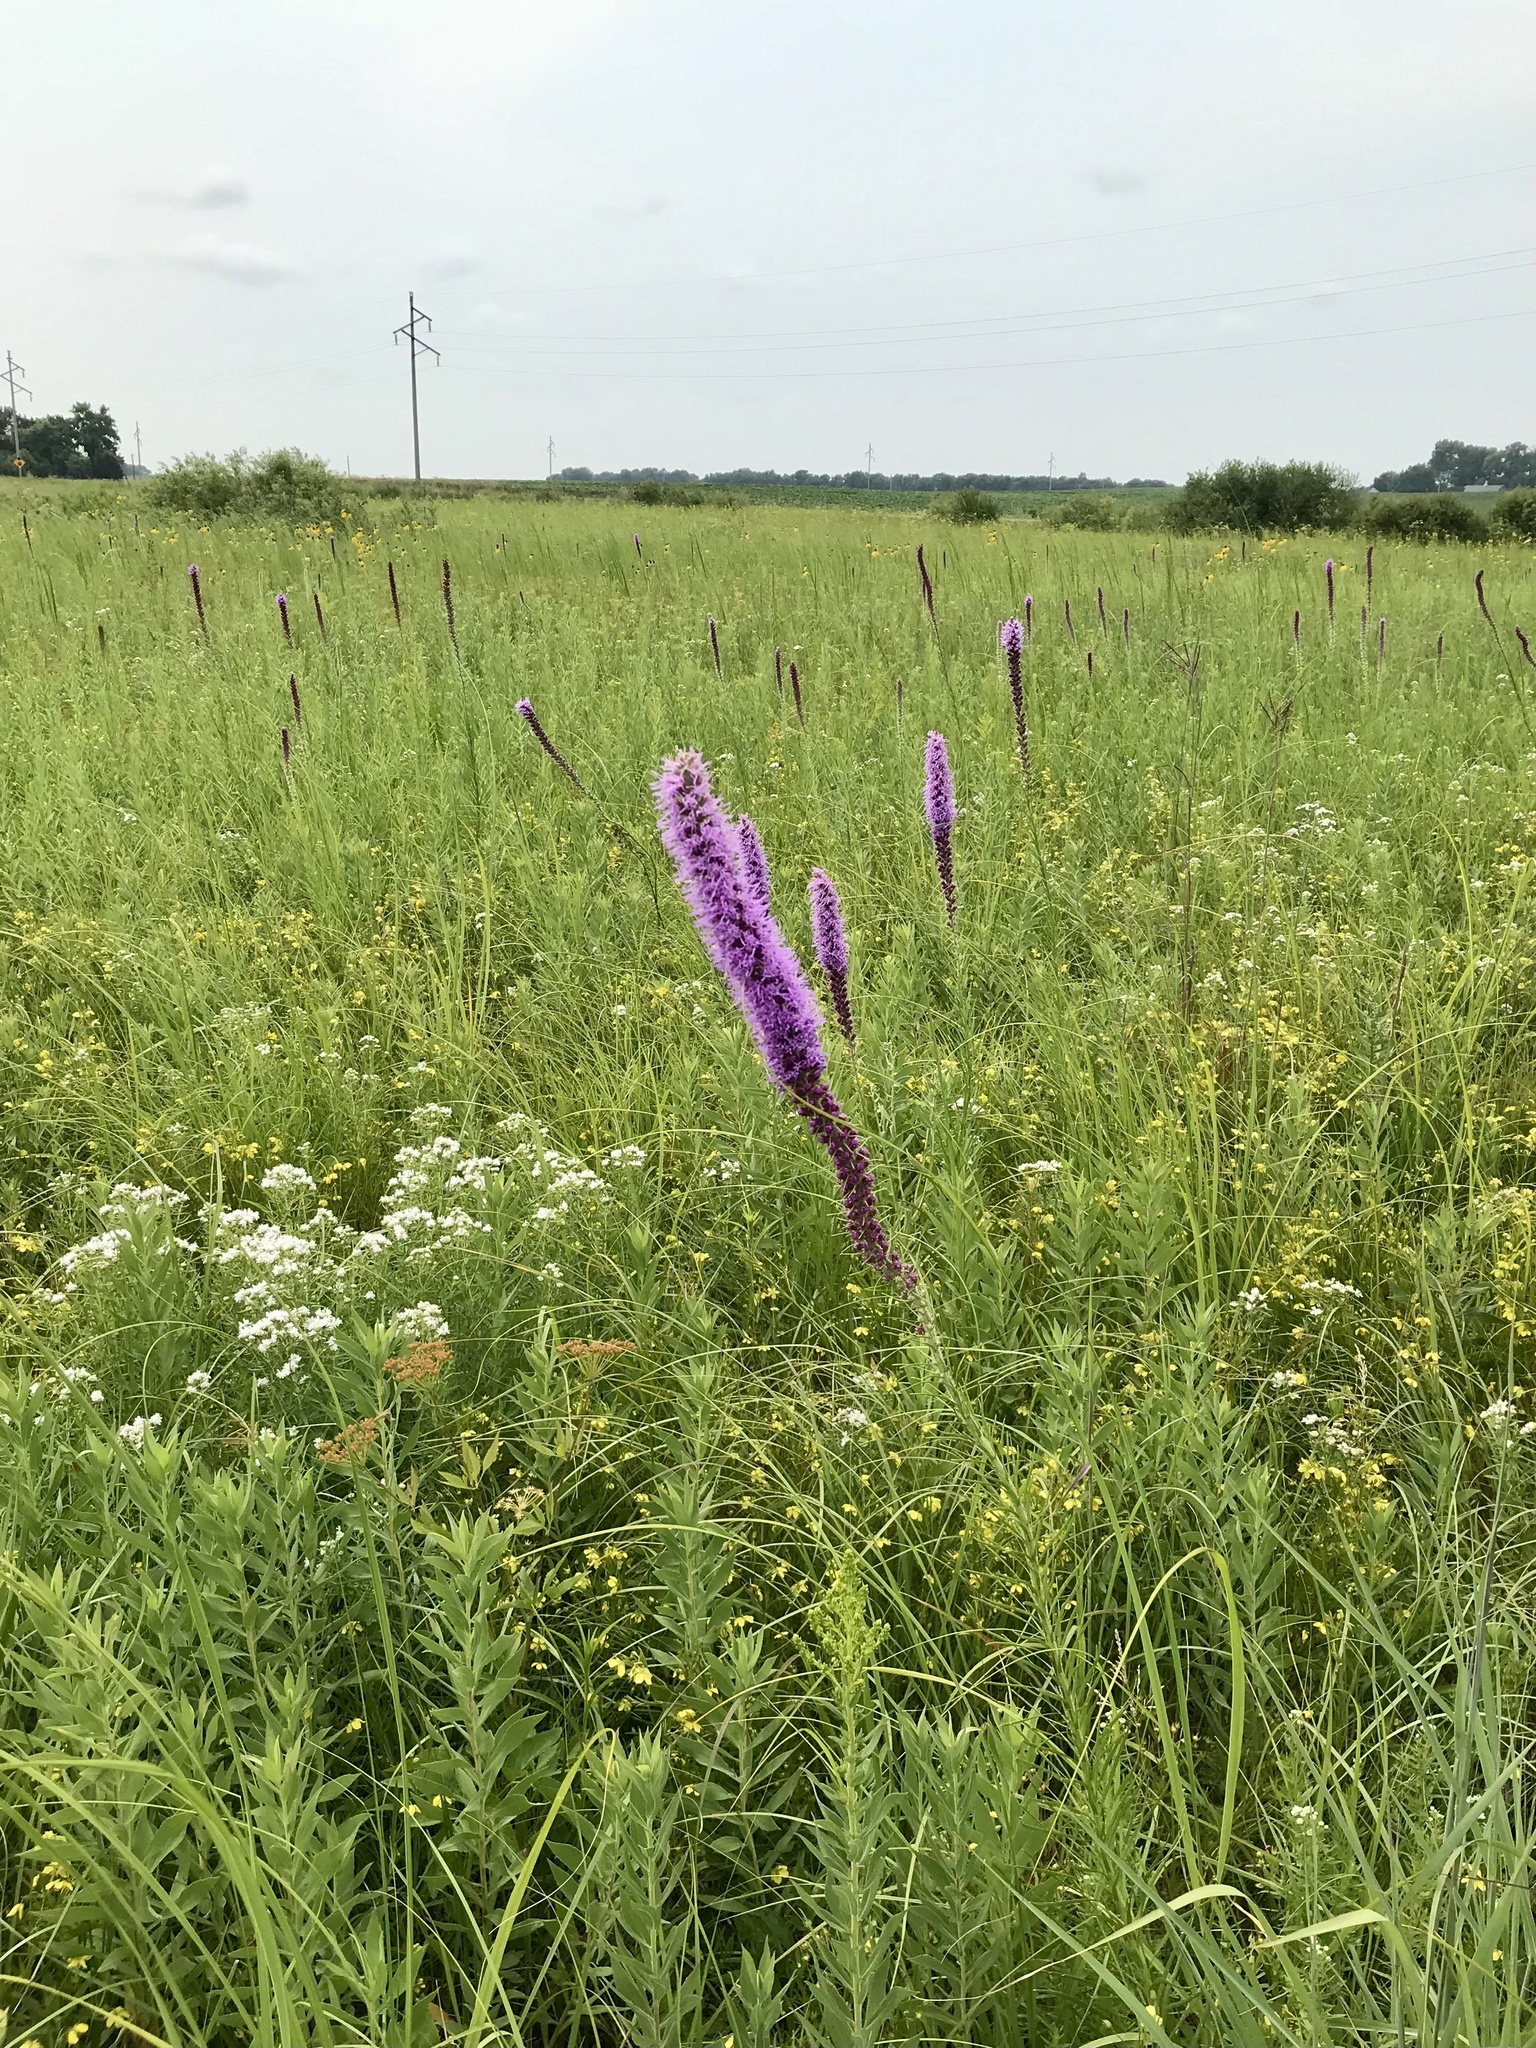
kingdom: Plantae
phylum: Tracheophyta
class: Magnoliopsida
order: Asterales
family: Asteraceae
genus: Liatris
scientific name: Liatris pycnostachya
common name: Cattail gayfeather
